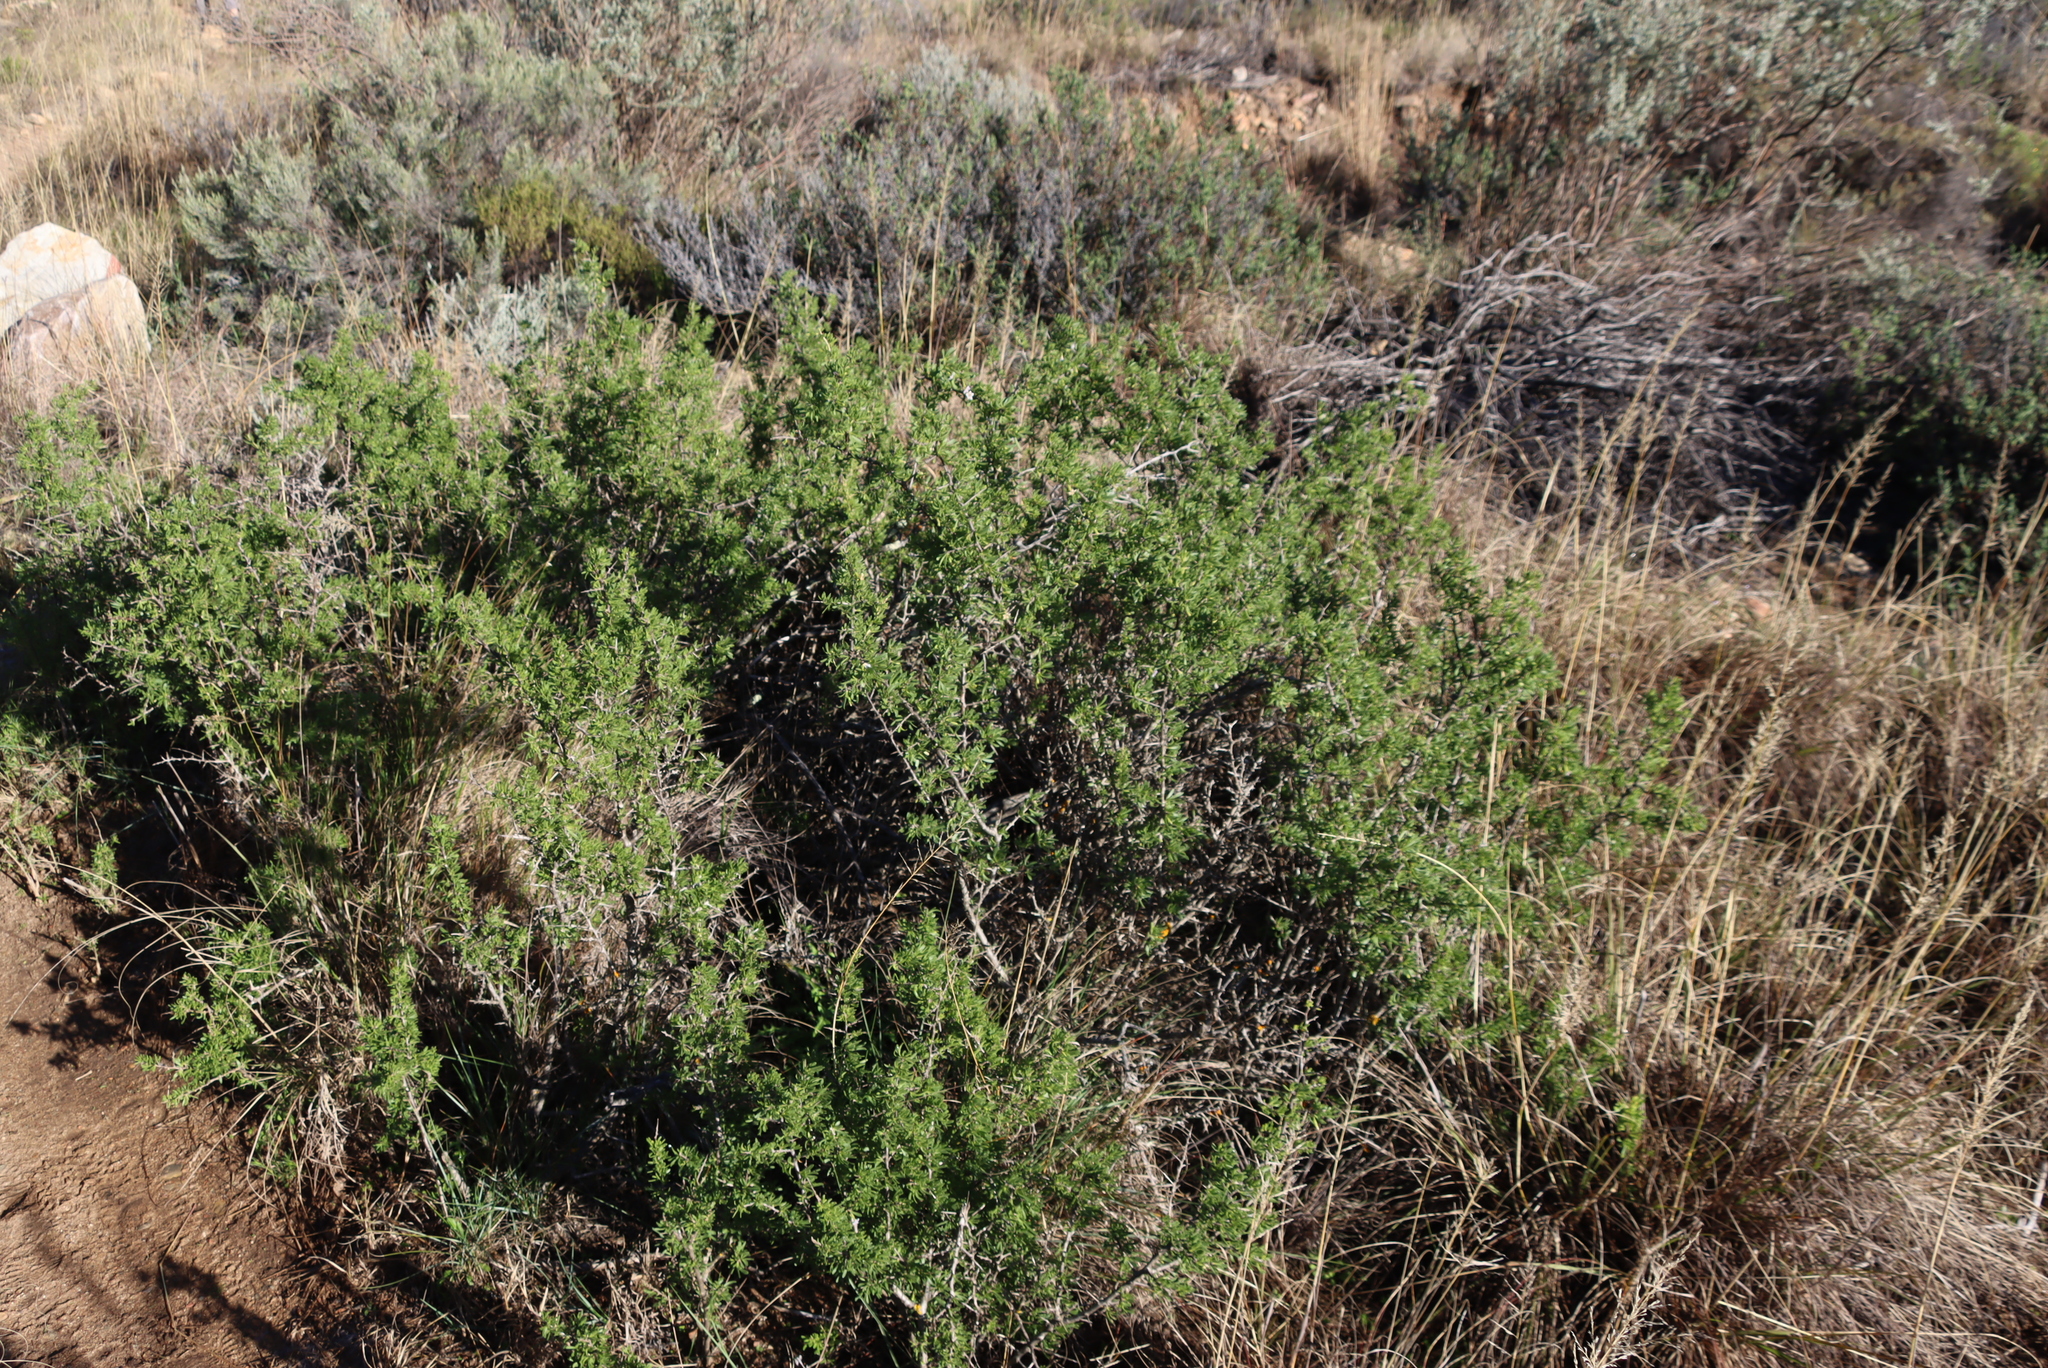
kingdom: Plantae
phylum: Tracheophyta
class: Magnoliopsida
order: Solanales
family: Solanaceae
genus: Lycium
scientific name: Lycium horridum
